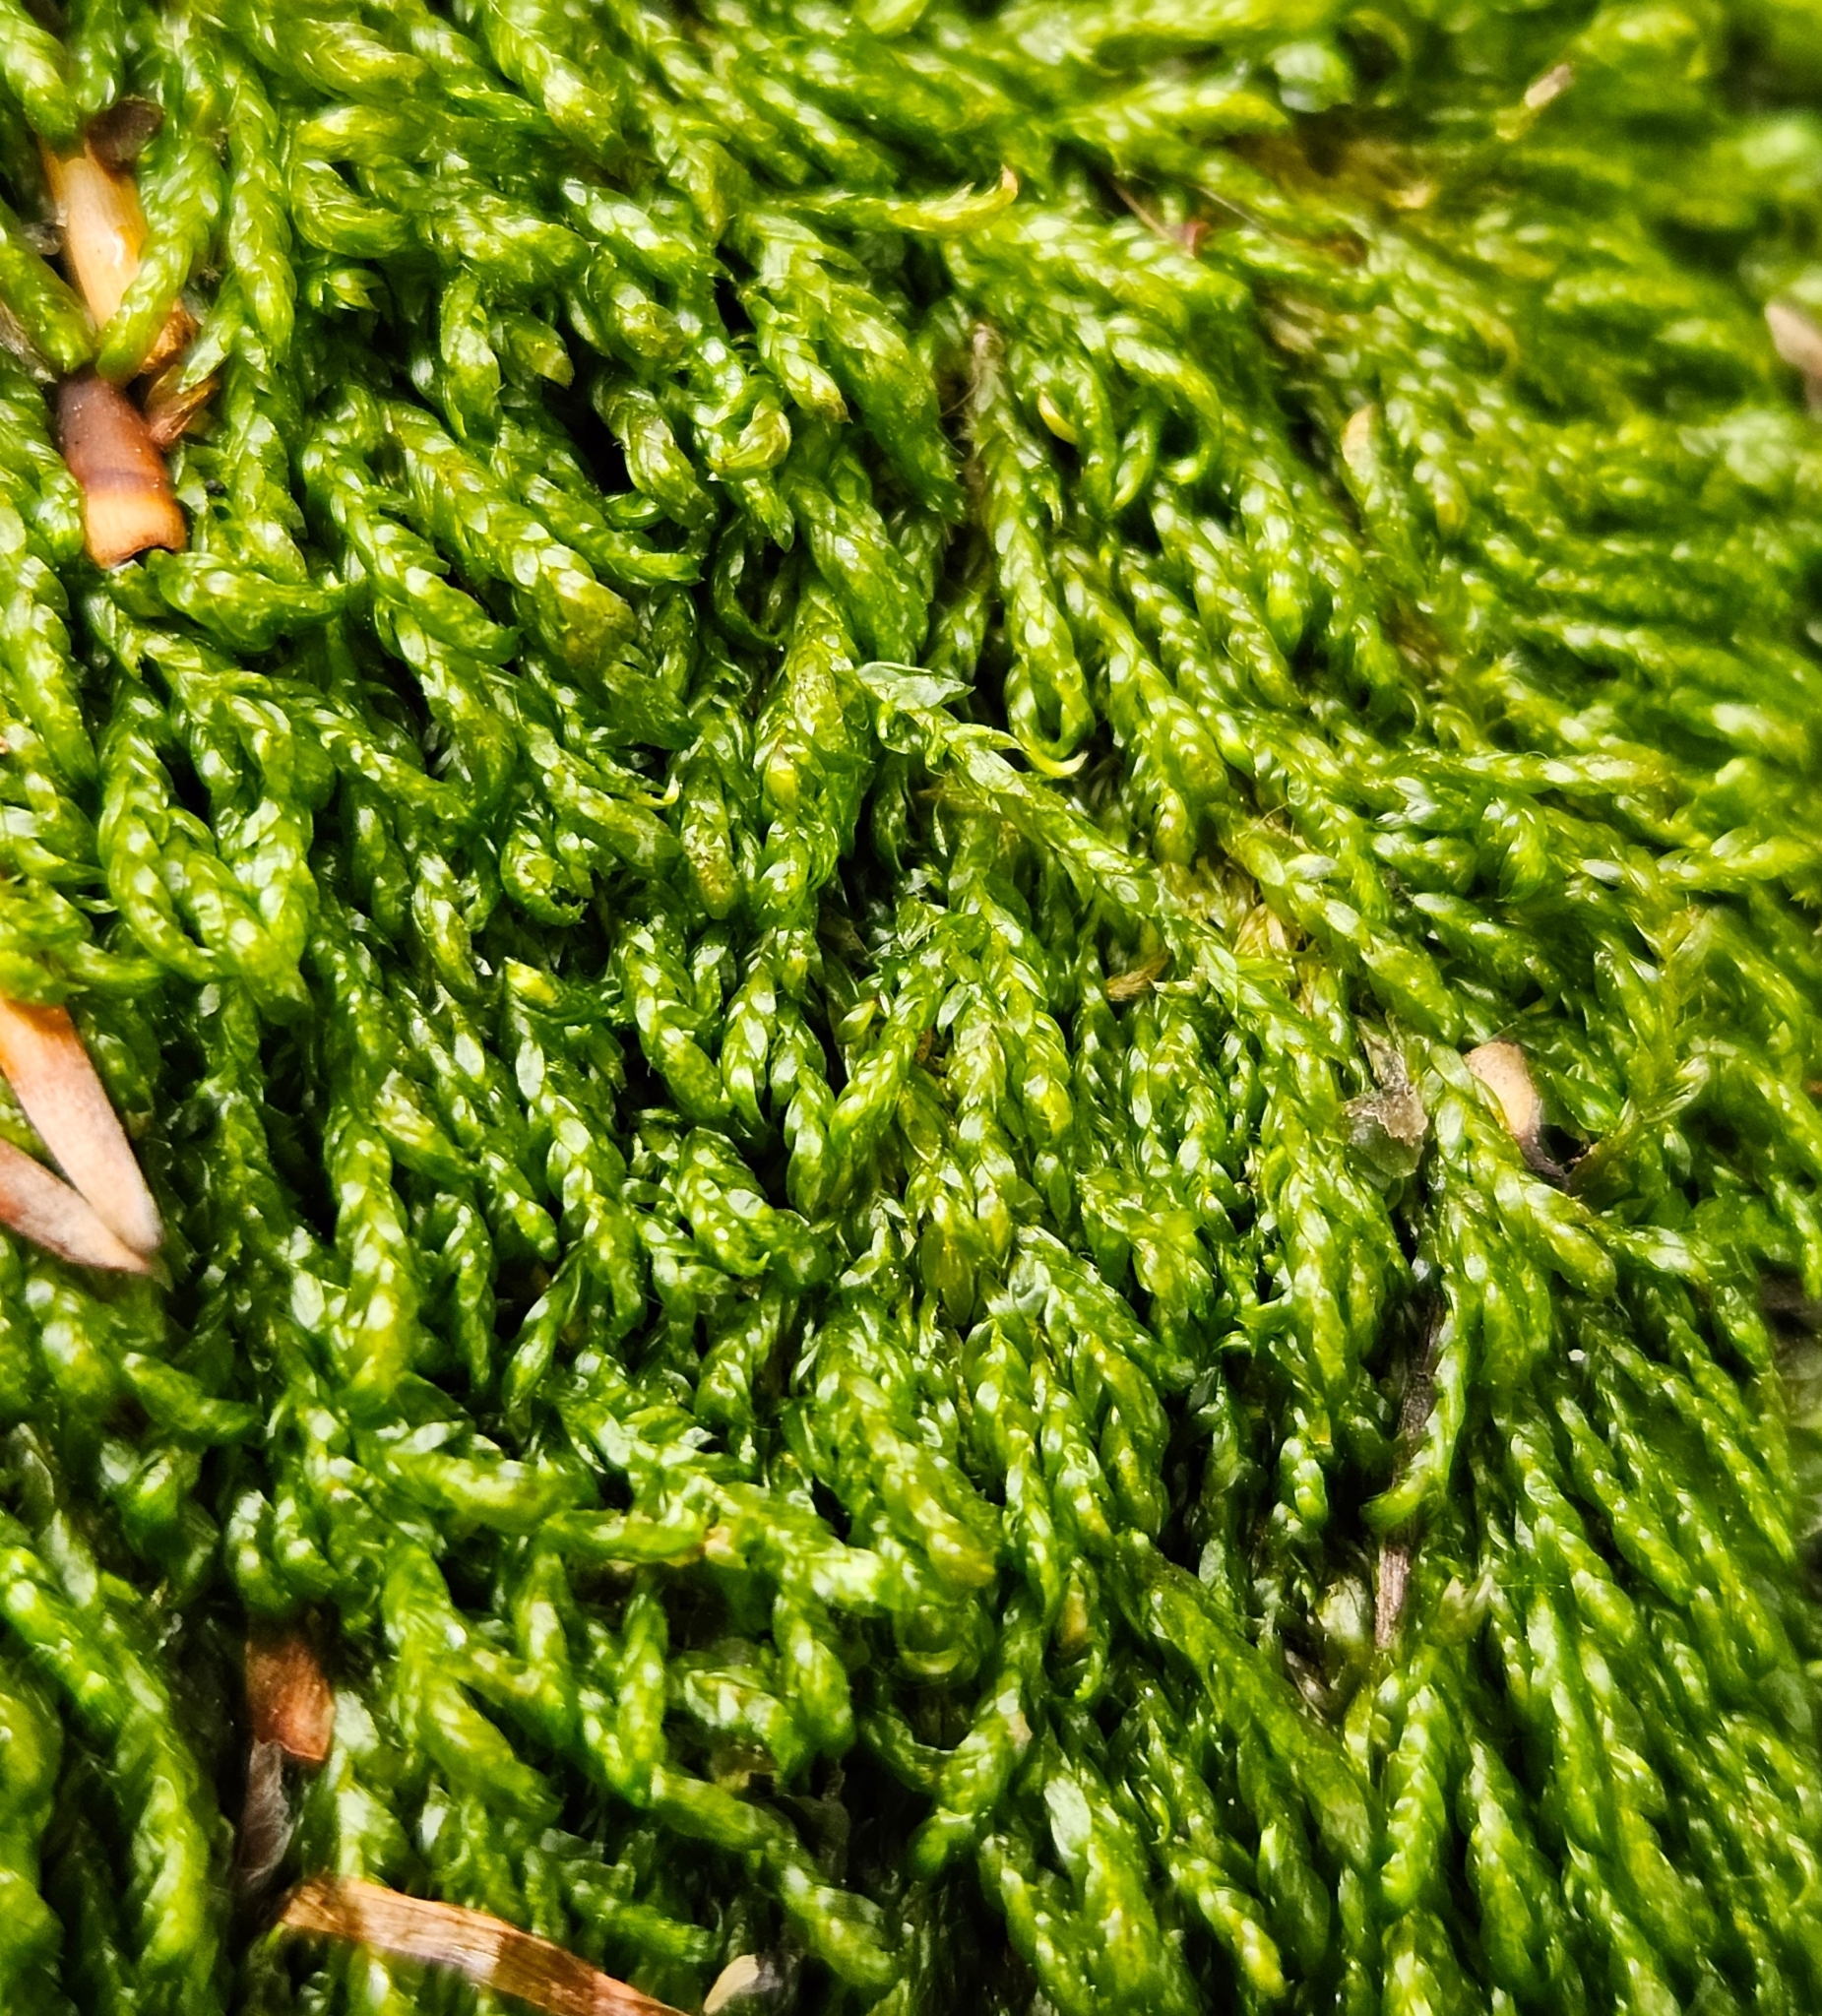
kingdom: Plantae
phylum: Bryophyta
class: Bryopsida
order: Hypnales
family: Scorpidiaceae
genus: Hygrohypnella
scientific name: Hygrohypnella ochracea
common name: Hygrohypnum moss
